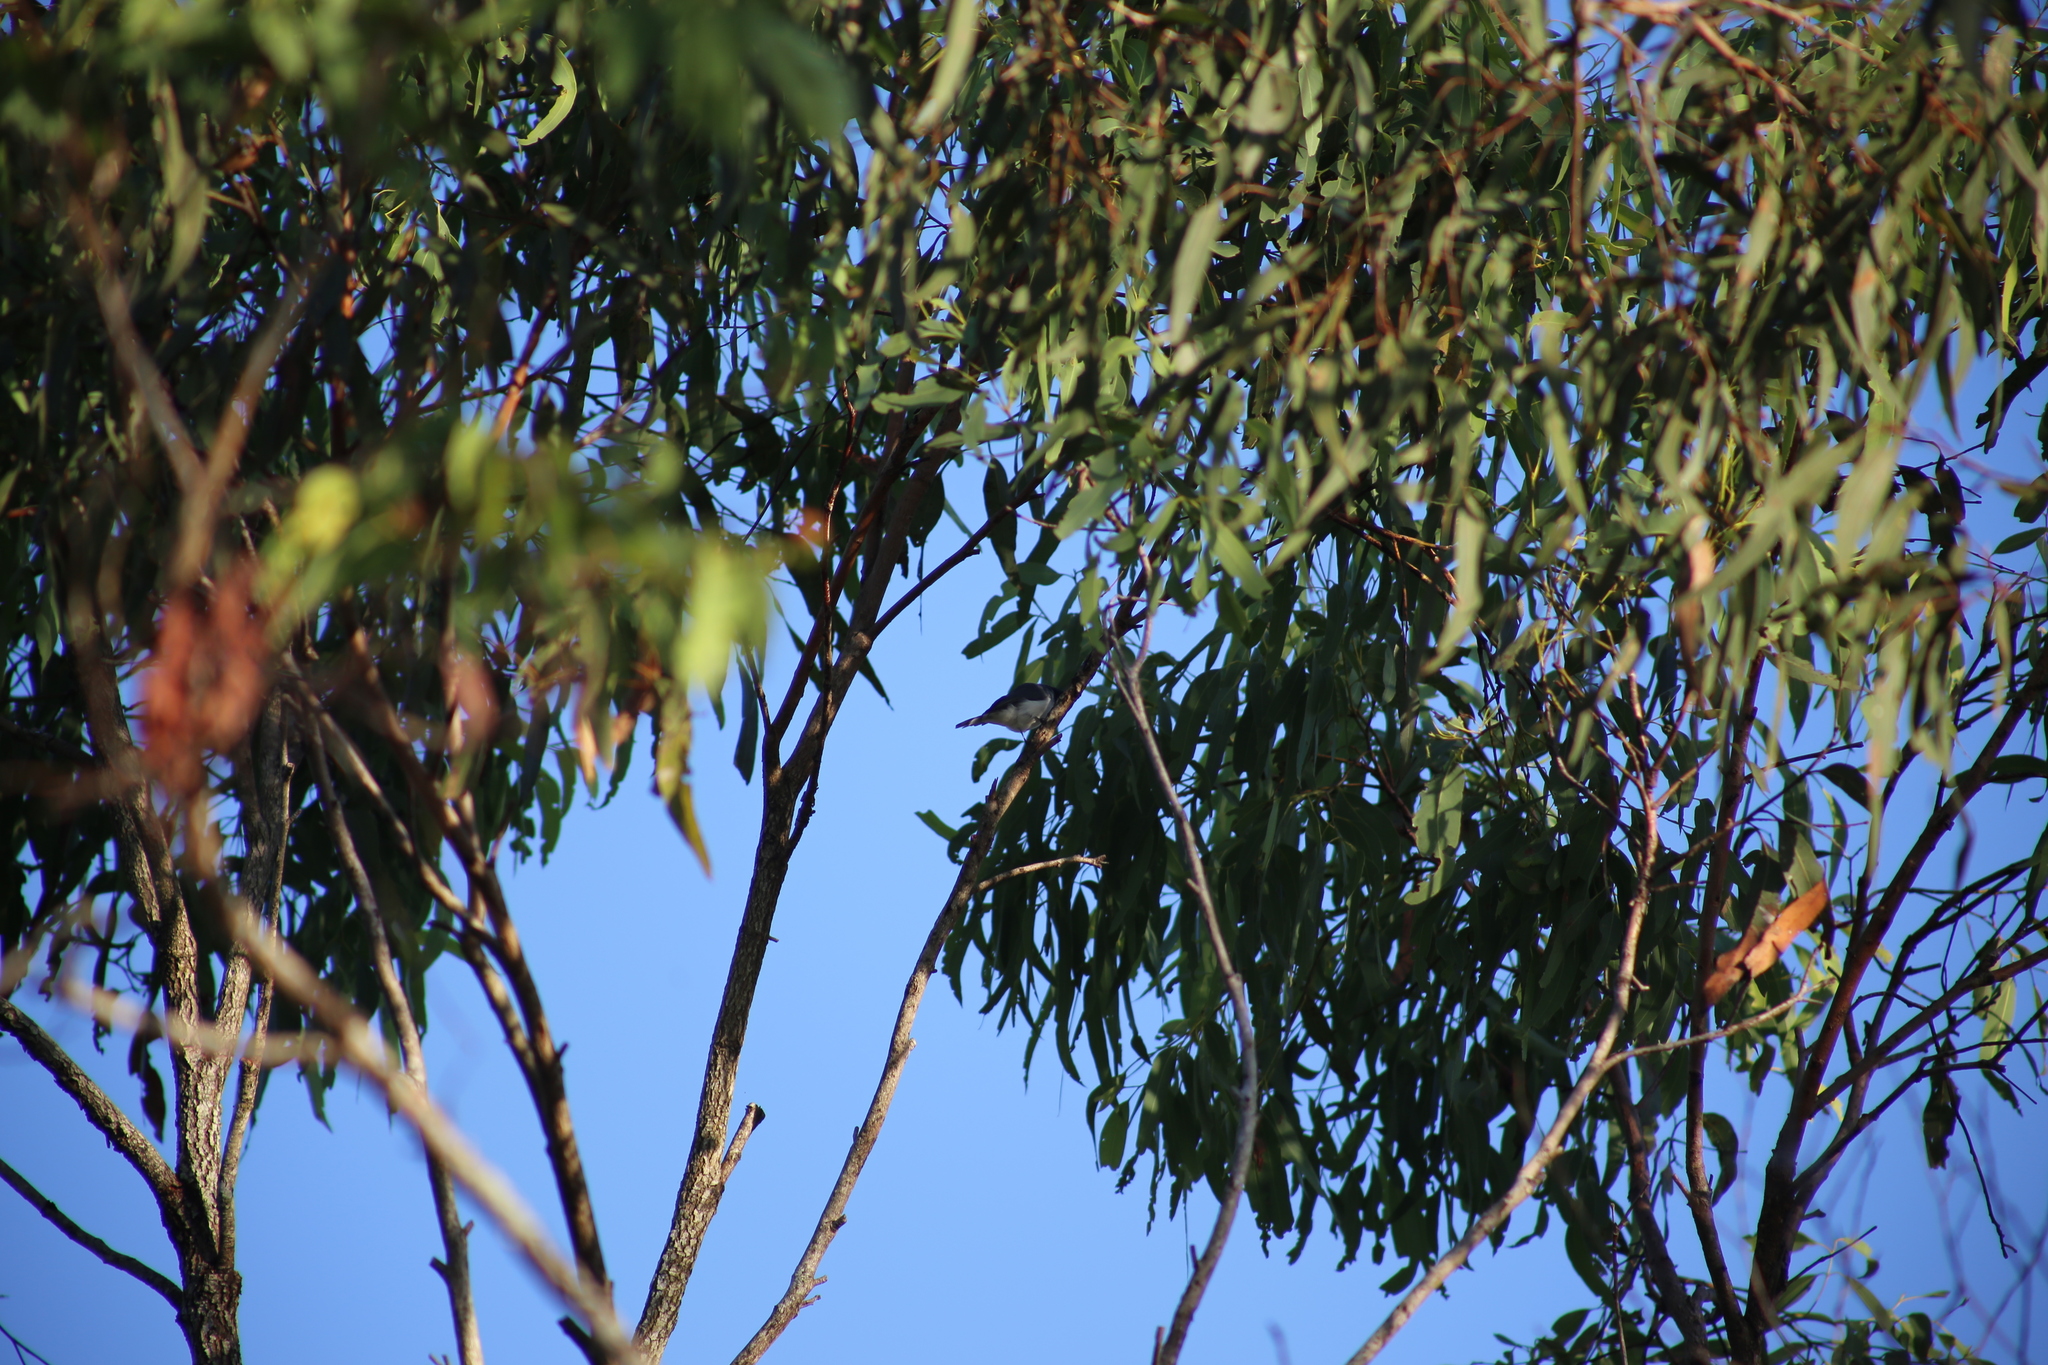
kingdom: Animalia
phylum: Chordata
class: Aves
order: Passeriformes
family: Monarchidae
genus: Myiagra
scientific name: Myiagra rubecula
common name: Leaden flycatcher
